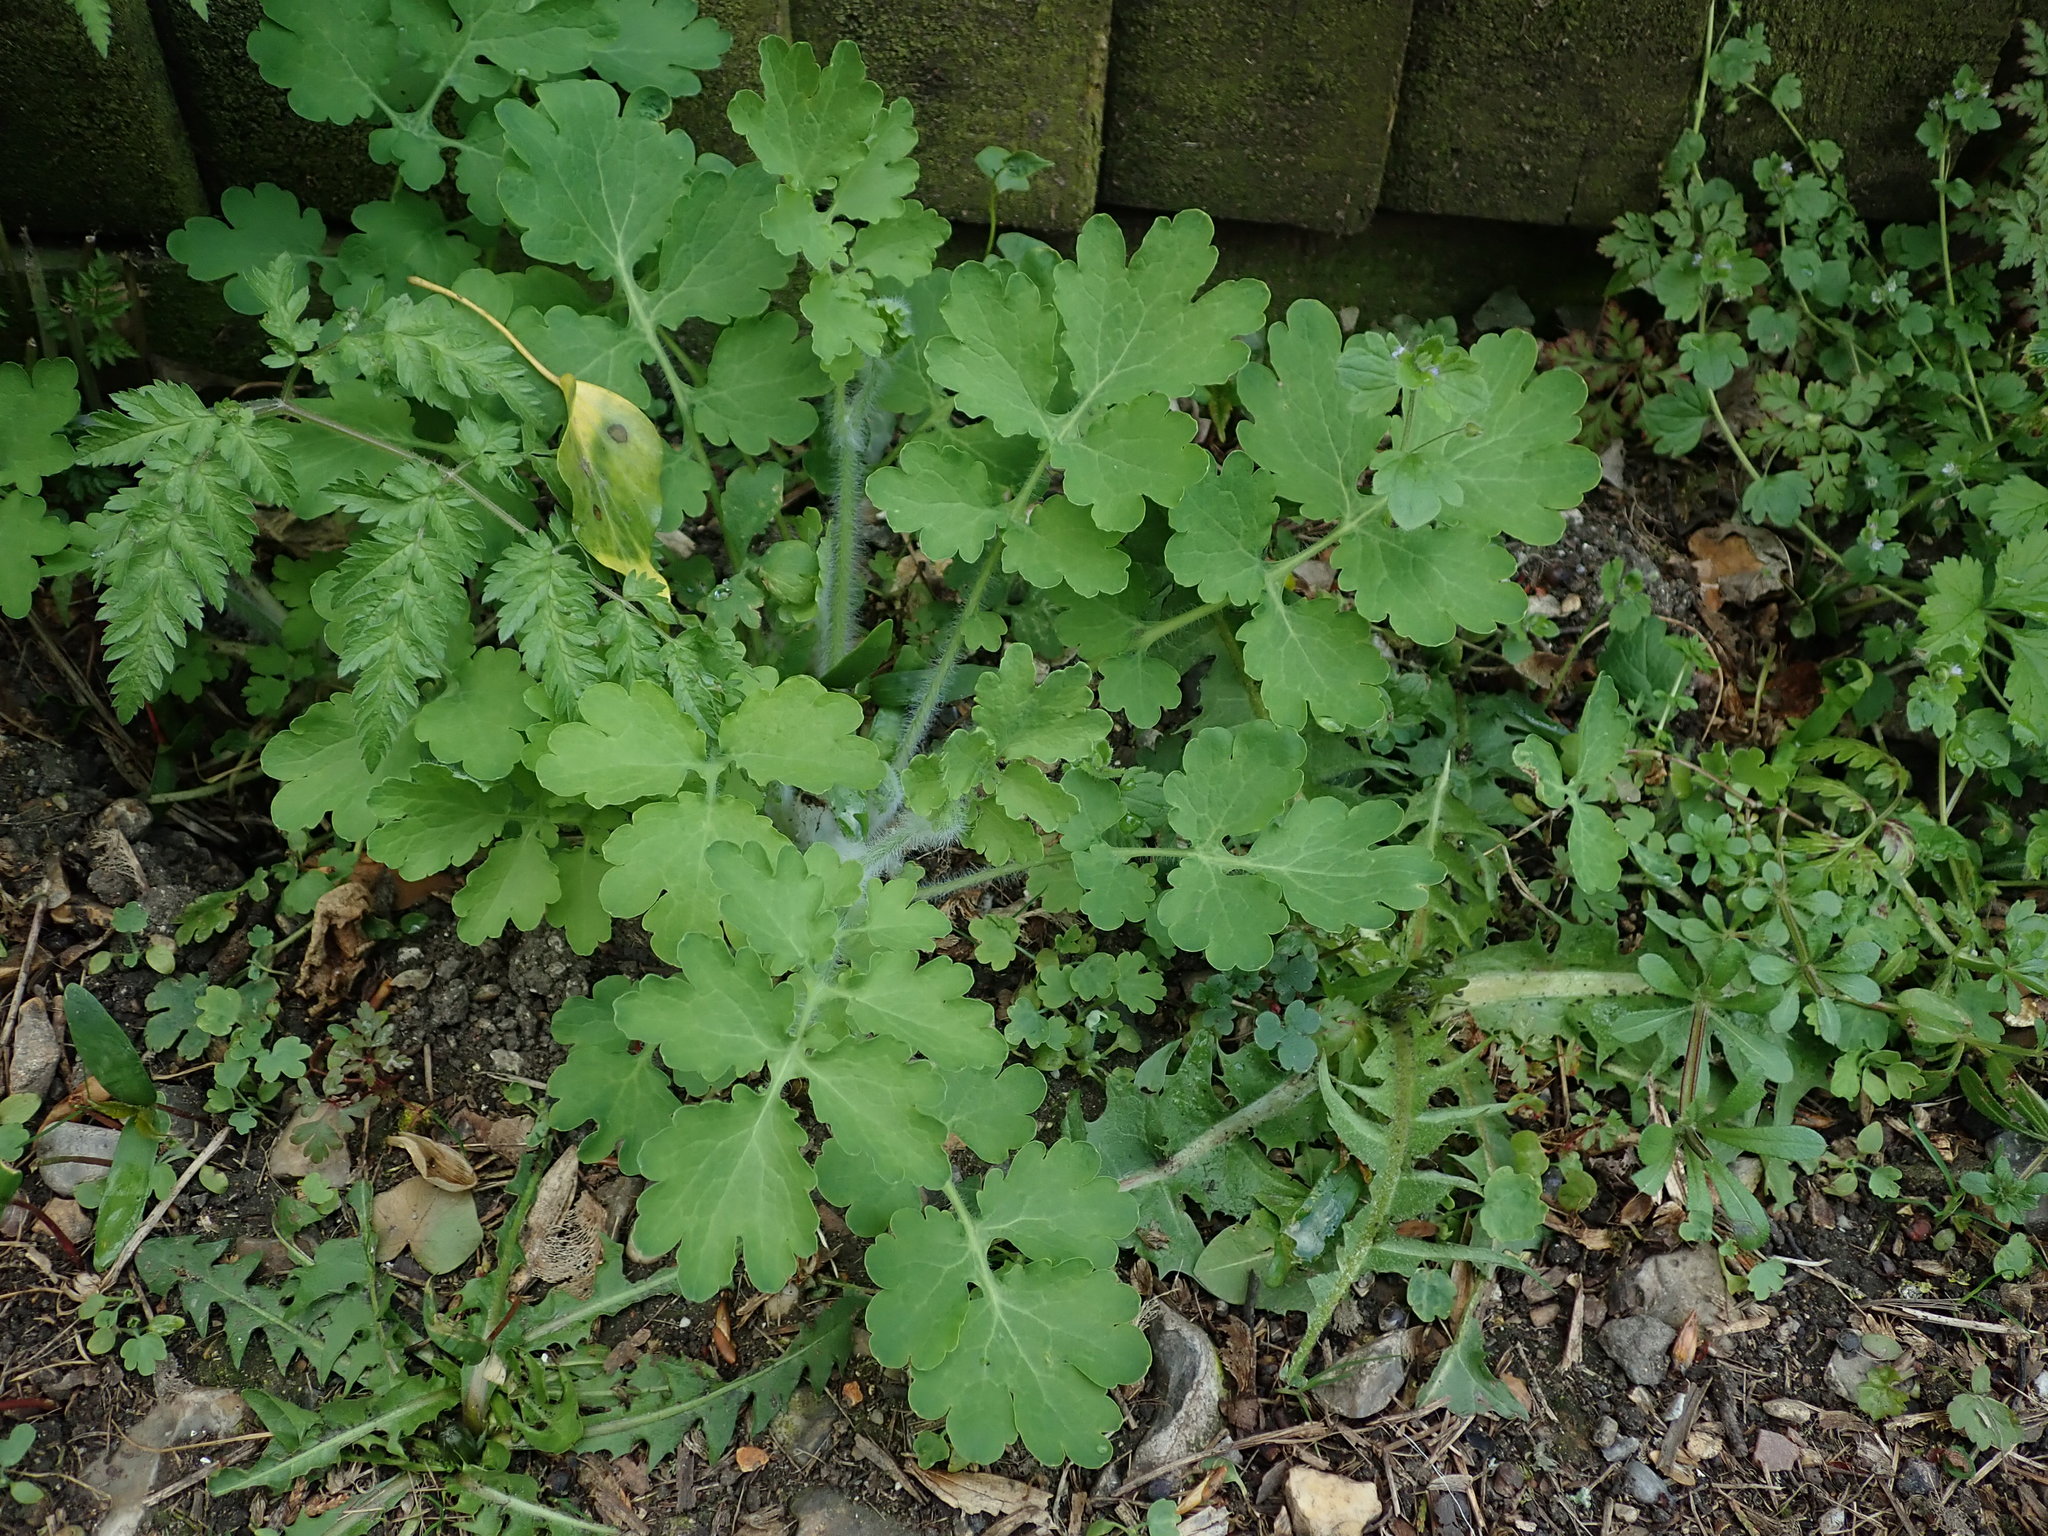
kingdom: Plantae
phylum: Tracheophyta
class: Magnoliopsida
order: Ranunculales
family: Papaveraceae
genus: Chelidonium
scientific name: Chelidonium majus
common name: Greater celandine
